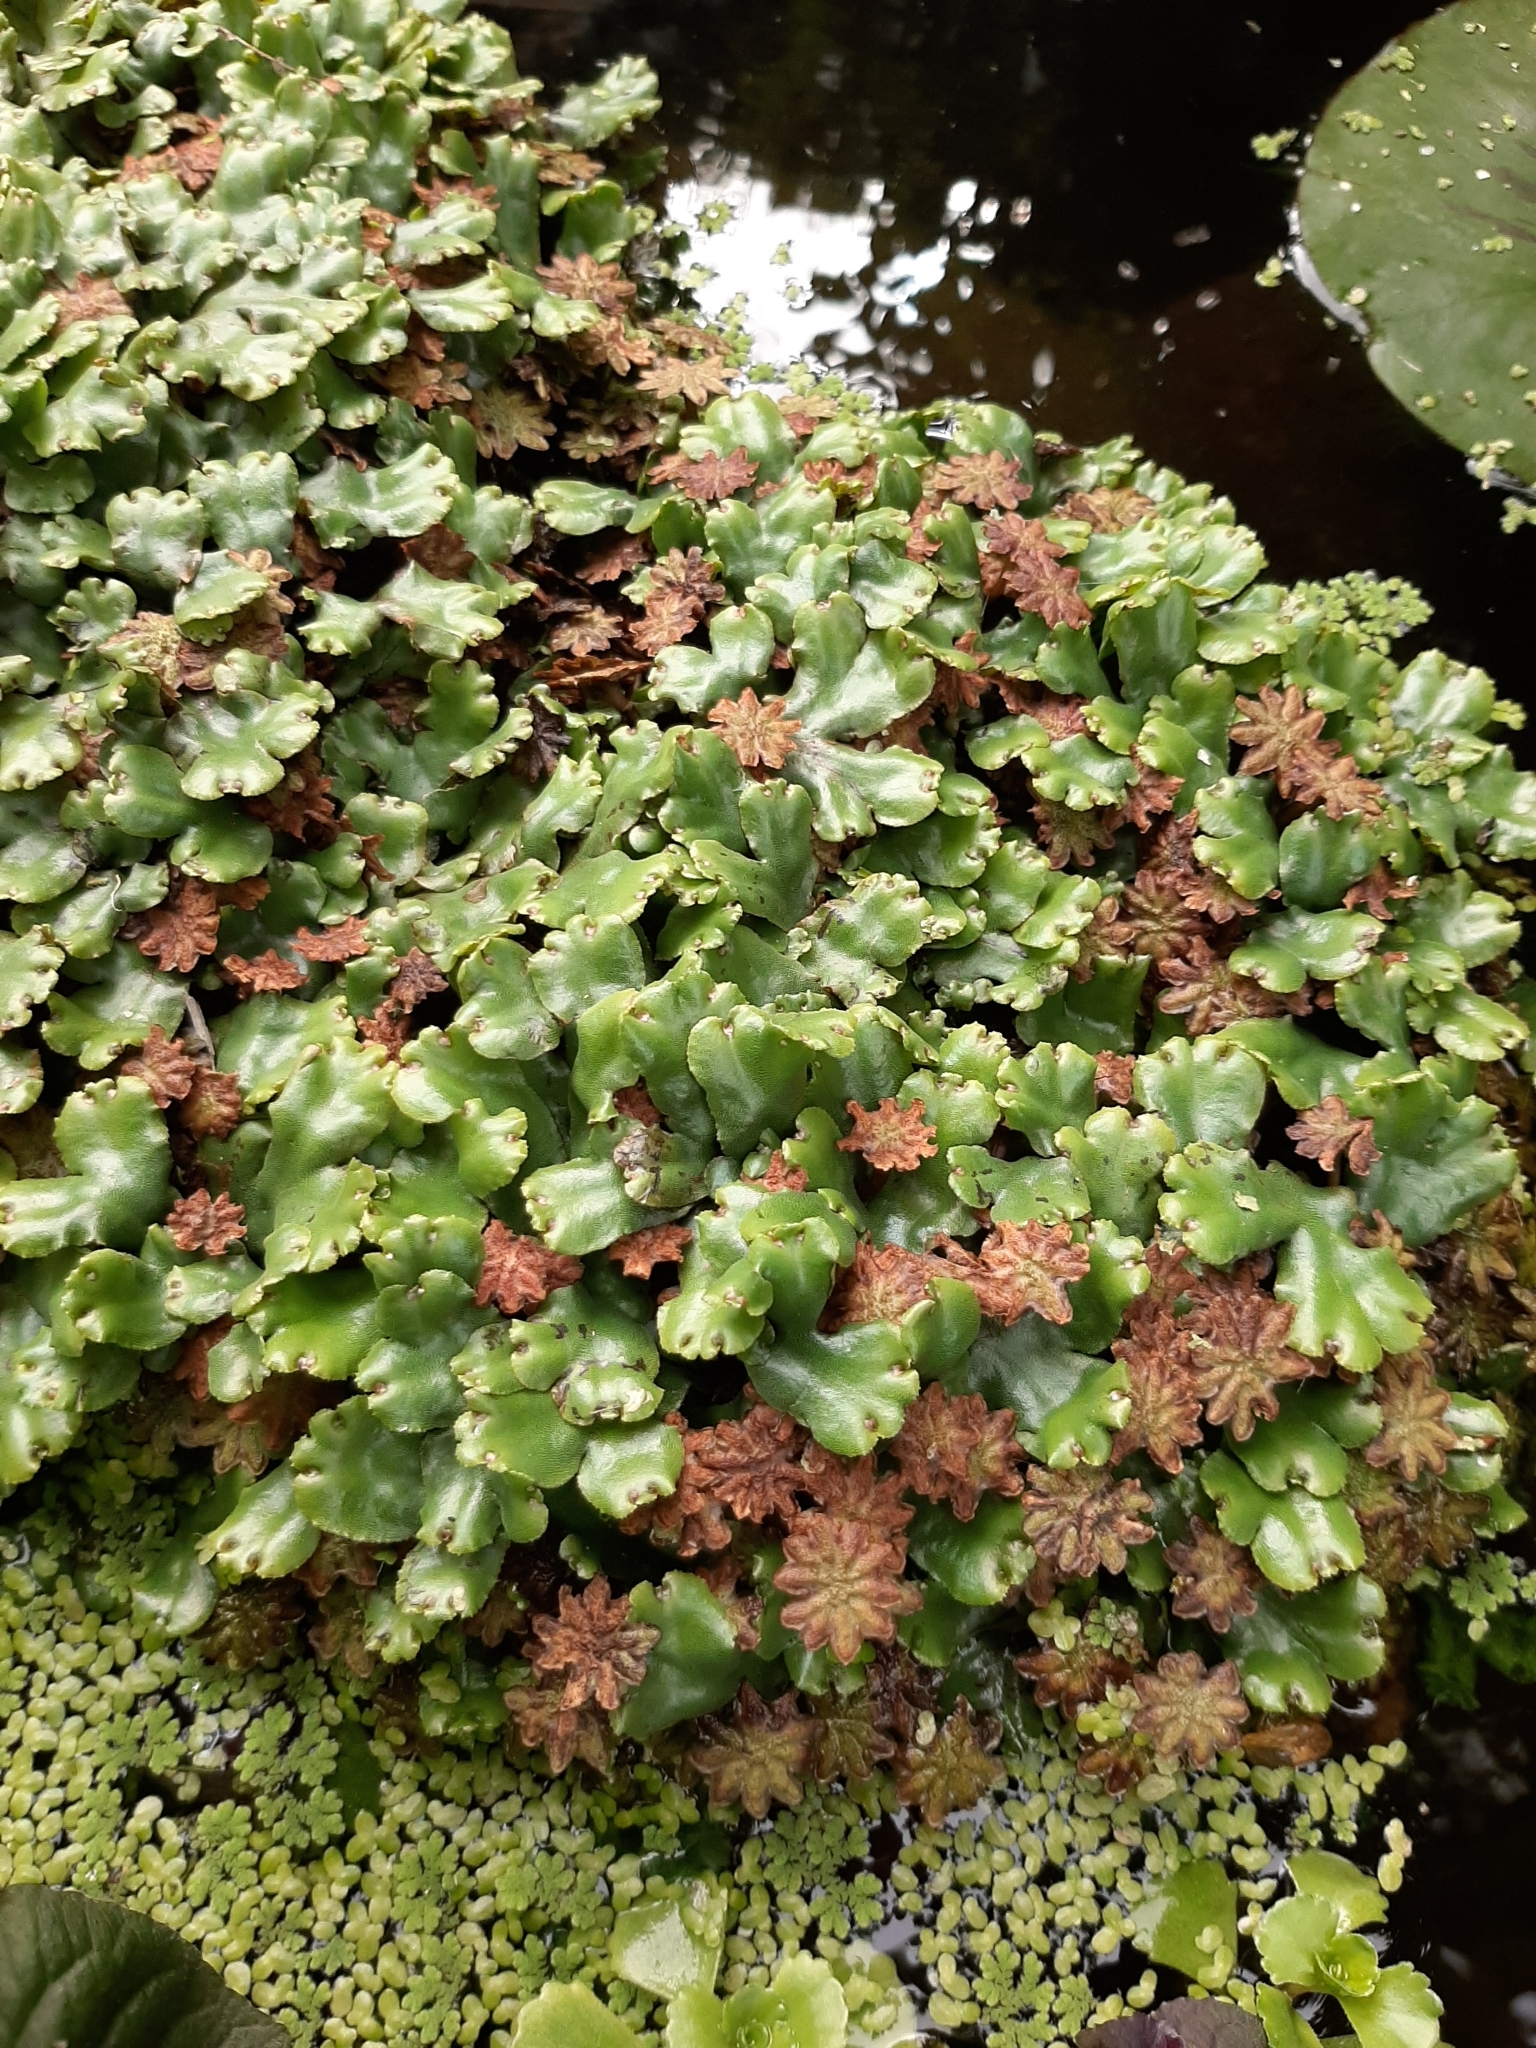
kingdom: Plantae
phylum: Marchantiophyta
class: Marchantiopsida
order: Marchantiales
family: Marchantiaceae
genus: Marchantia
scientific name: Marchantia berteroana
